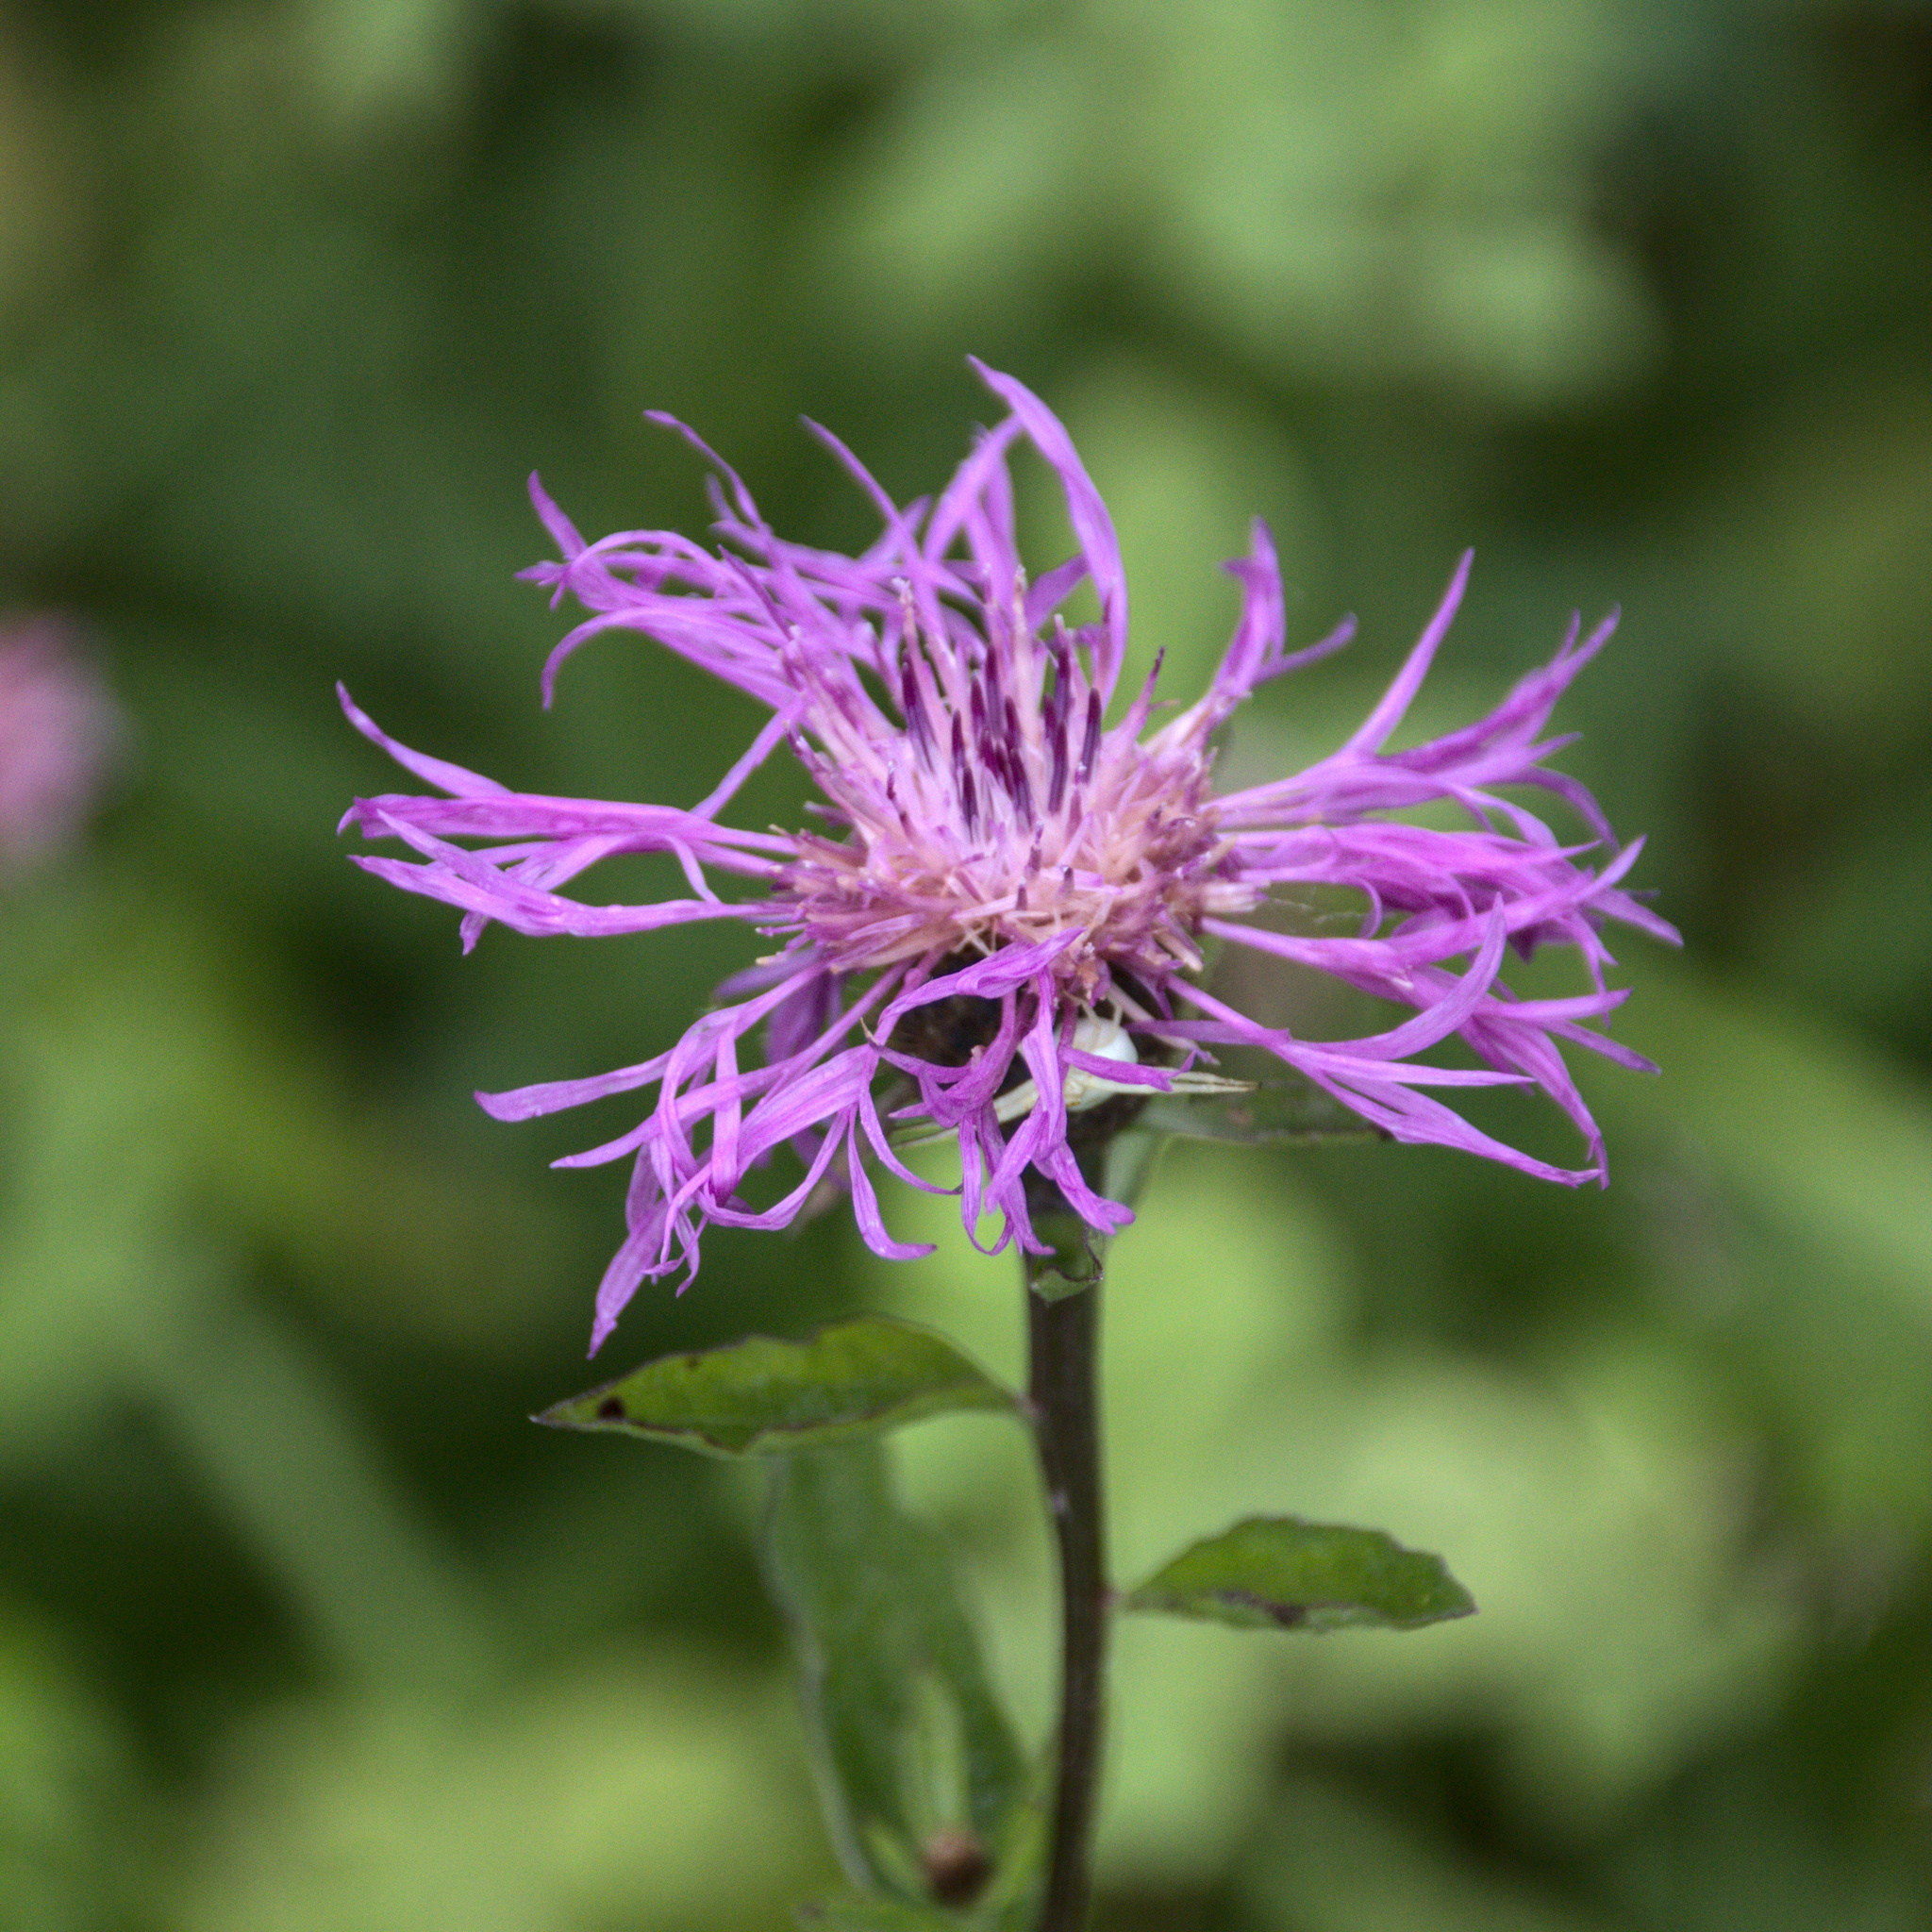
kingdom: Plantae
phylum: Tracheophyta
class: Magnoliopsida
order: Asterales
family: Asteraceae
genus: Centaurea
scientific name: Centaurea phrygia
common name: Wig knapweed
